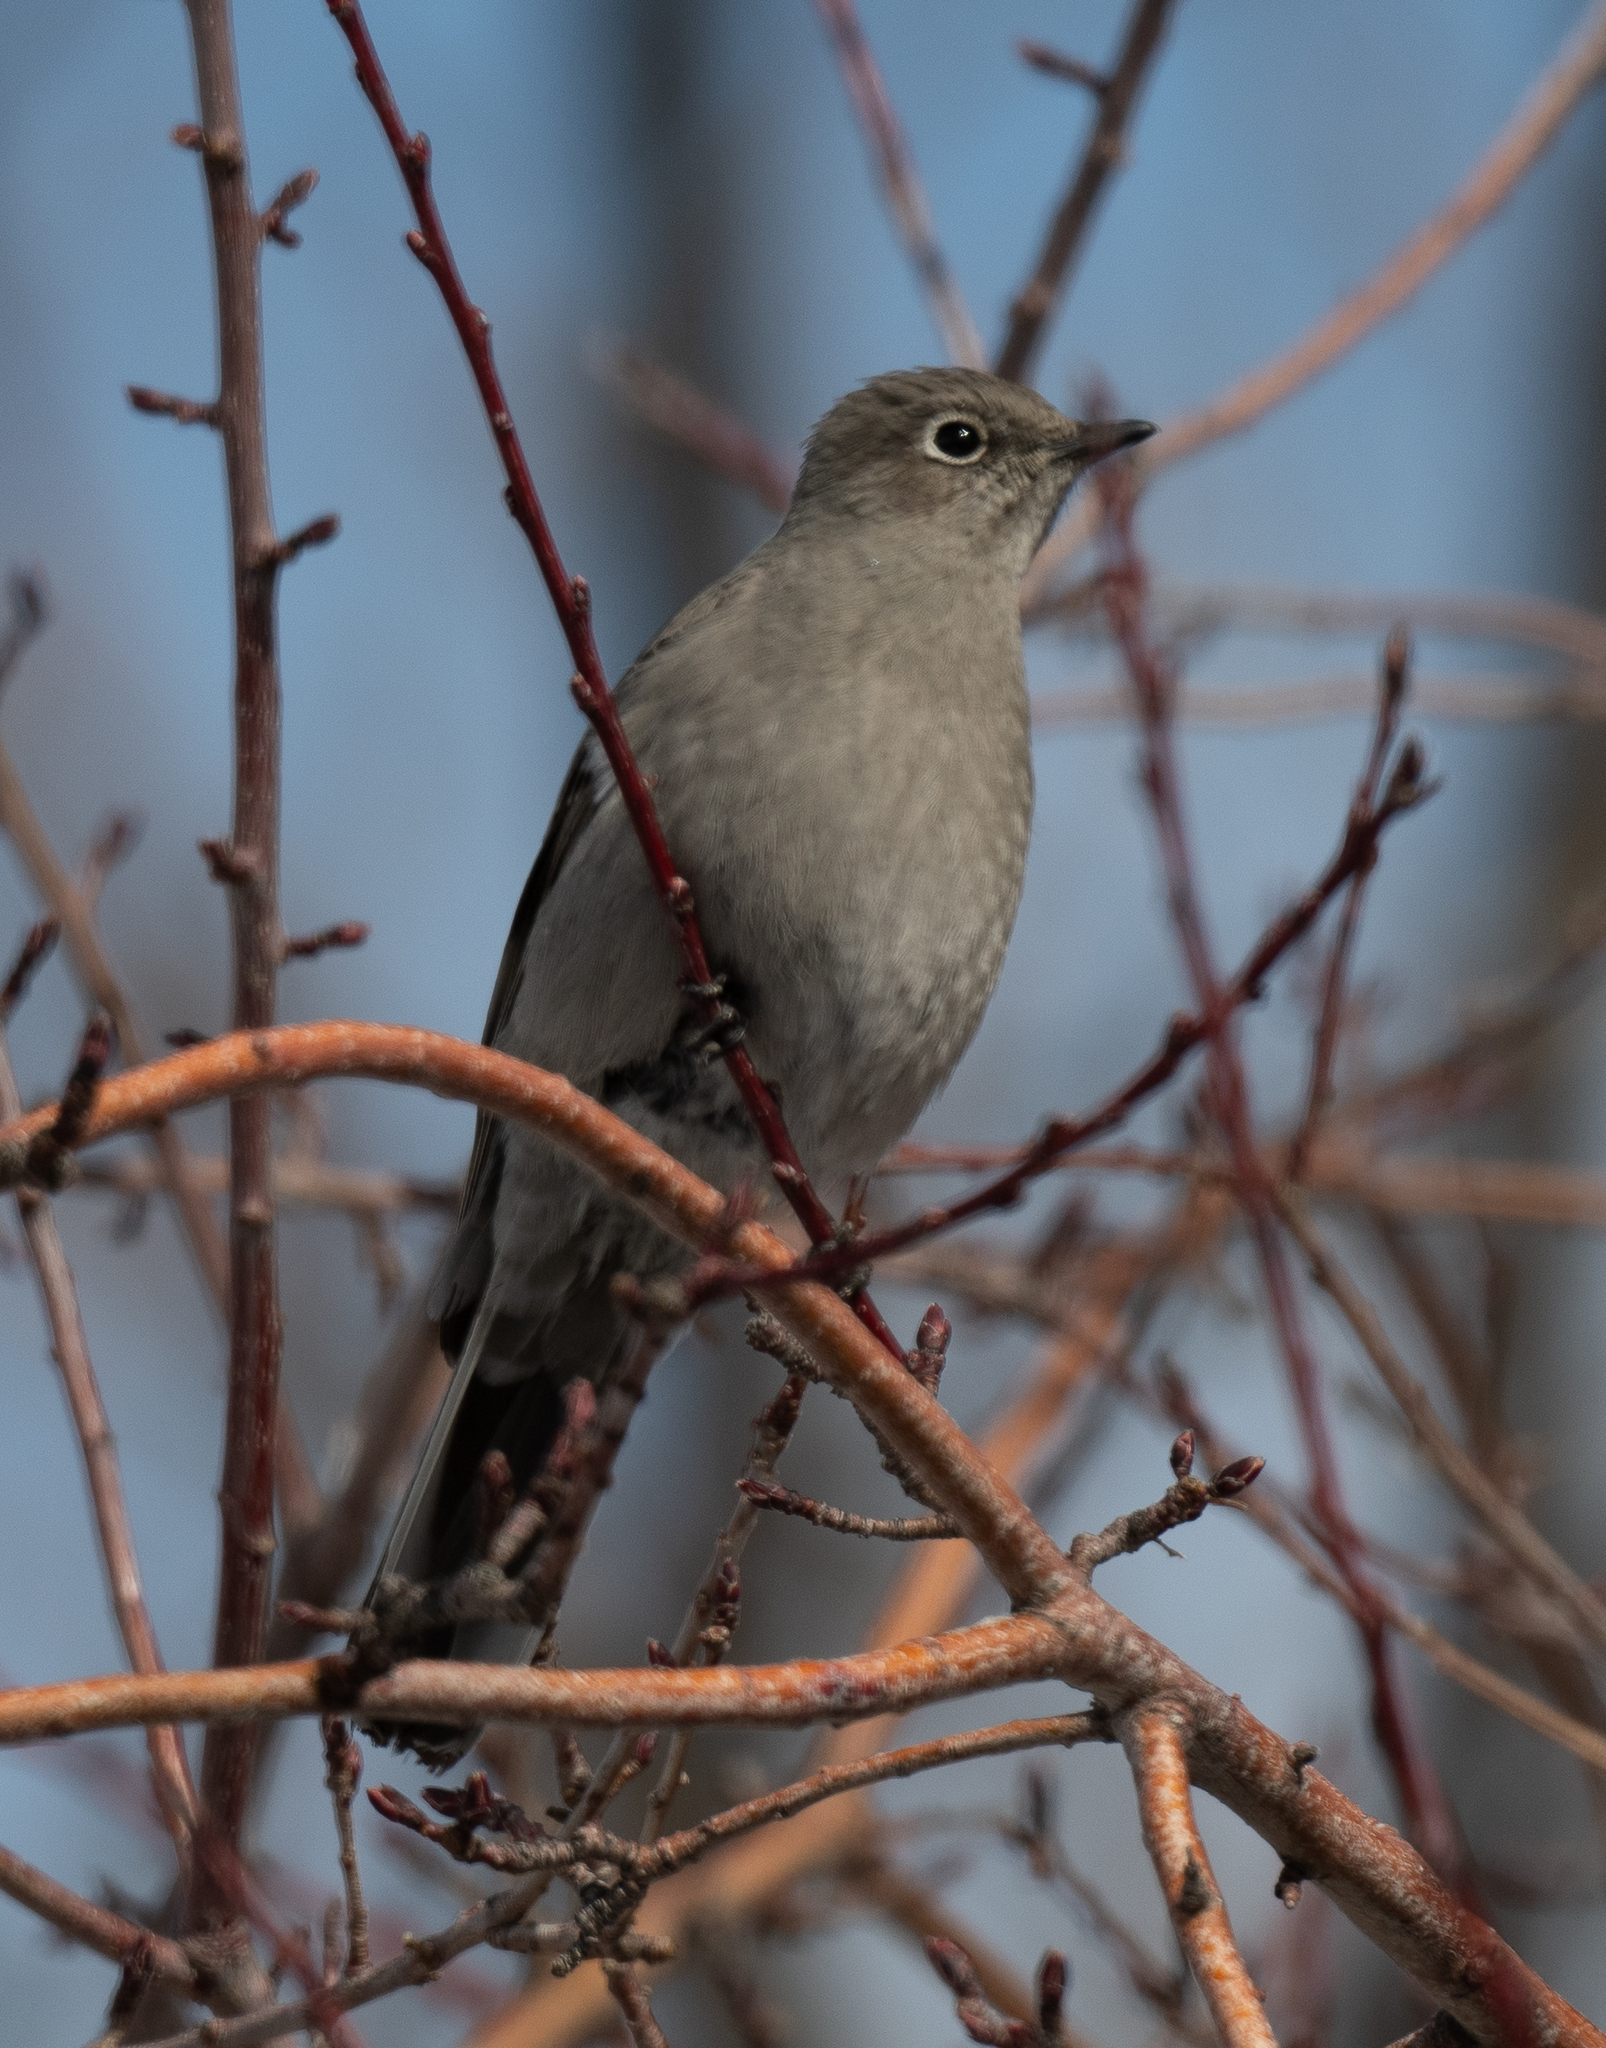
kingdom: Animalia
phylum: Chordata
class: Aves
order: Passeriformes
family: Turdidae
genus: Myadestes
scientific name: Myadestes townsendi
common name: Townsend's solitaire
